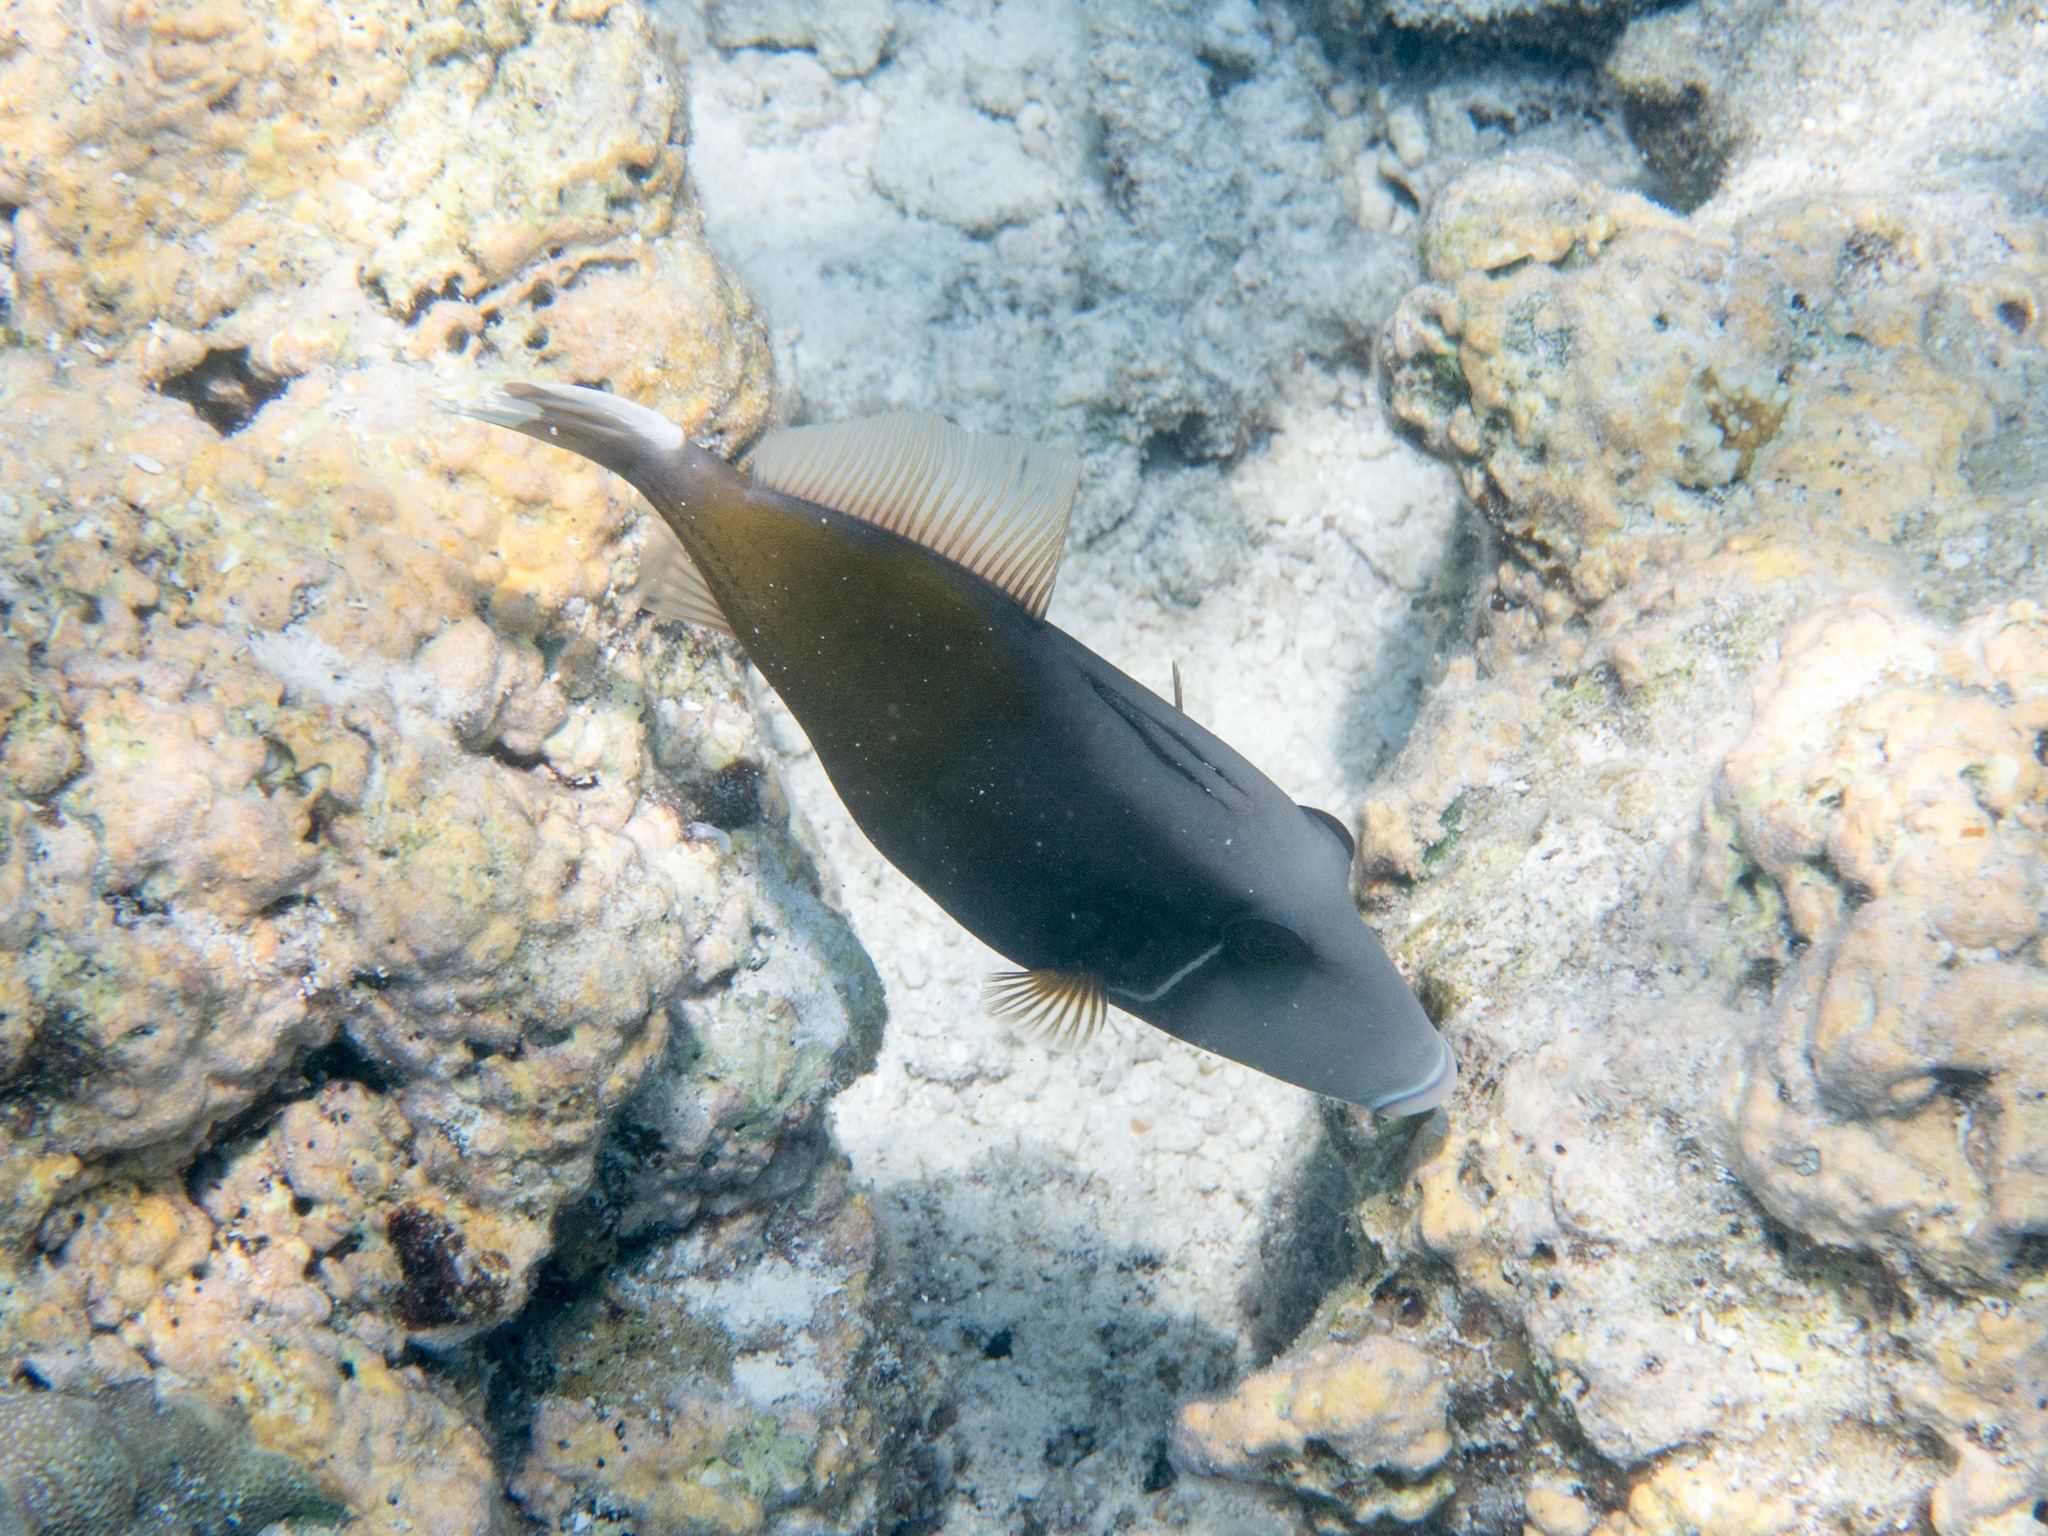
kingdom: Animalia
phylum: Chordata
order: Tetraodontiformes
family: Balistidae
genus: Sufflamen
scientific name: Sufflamen chrysopterum
